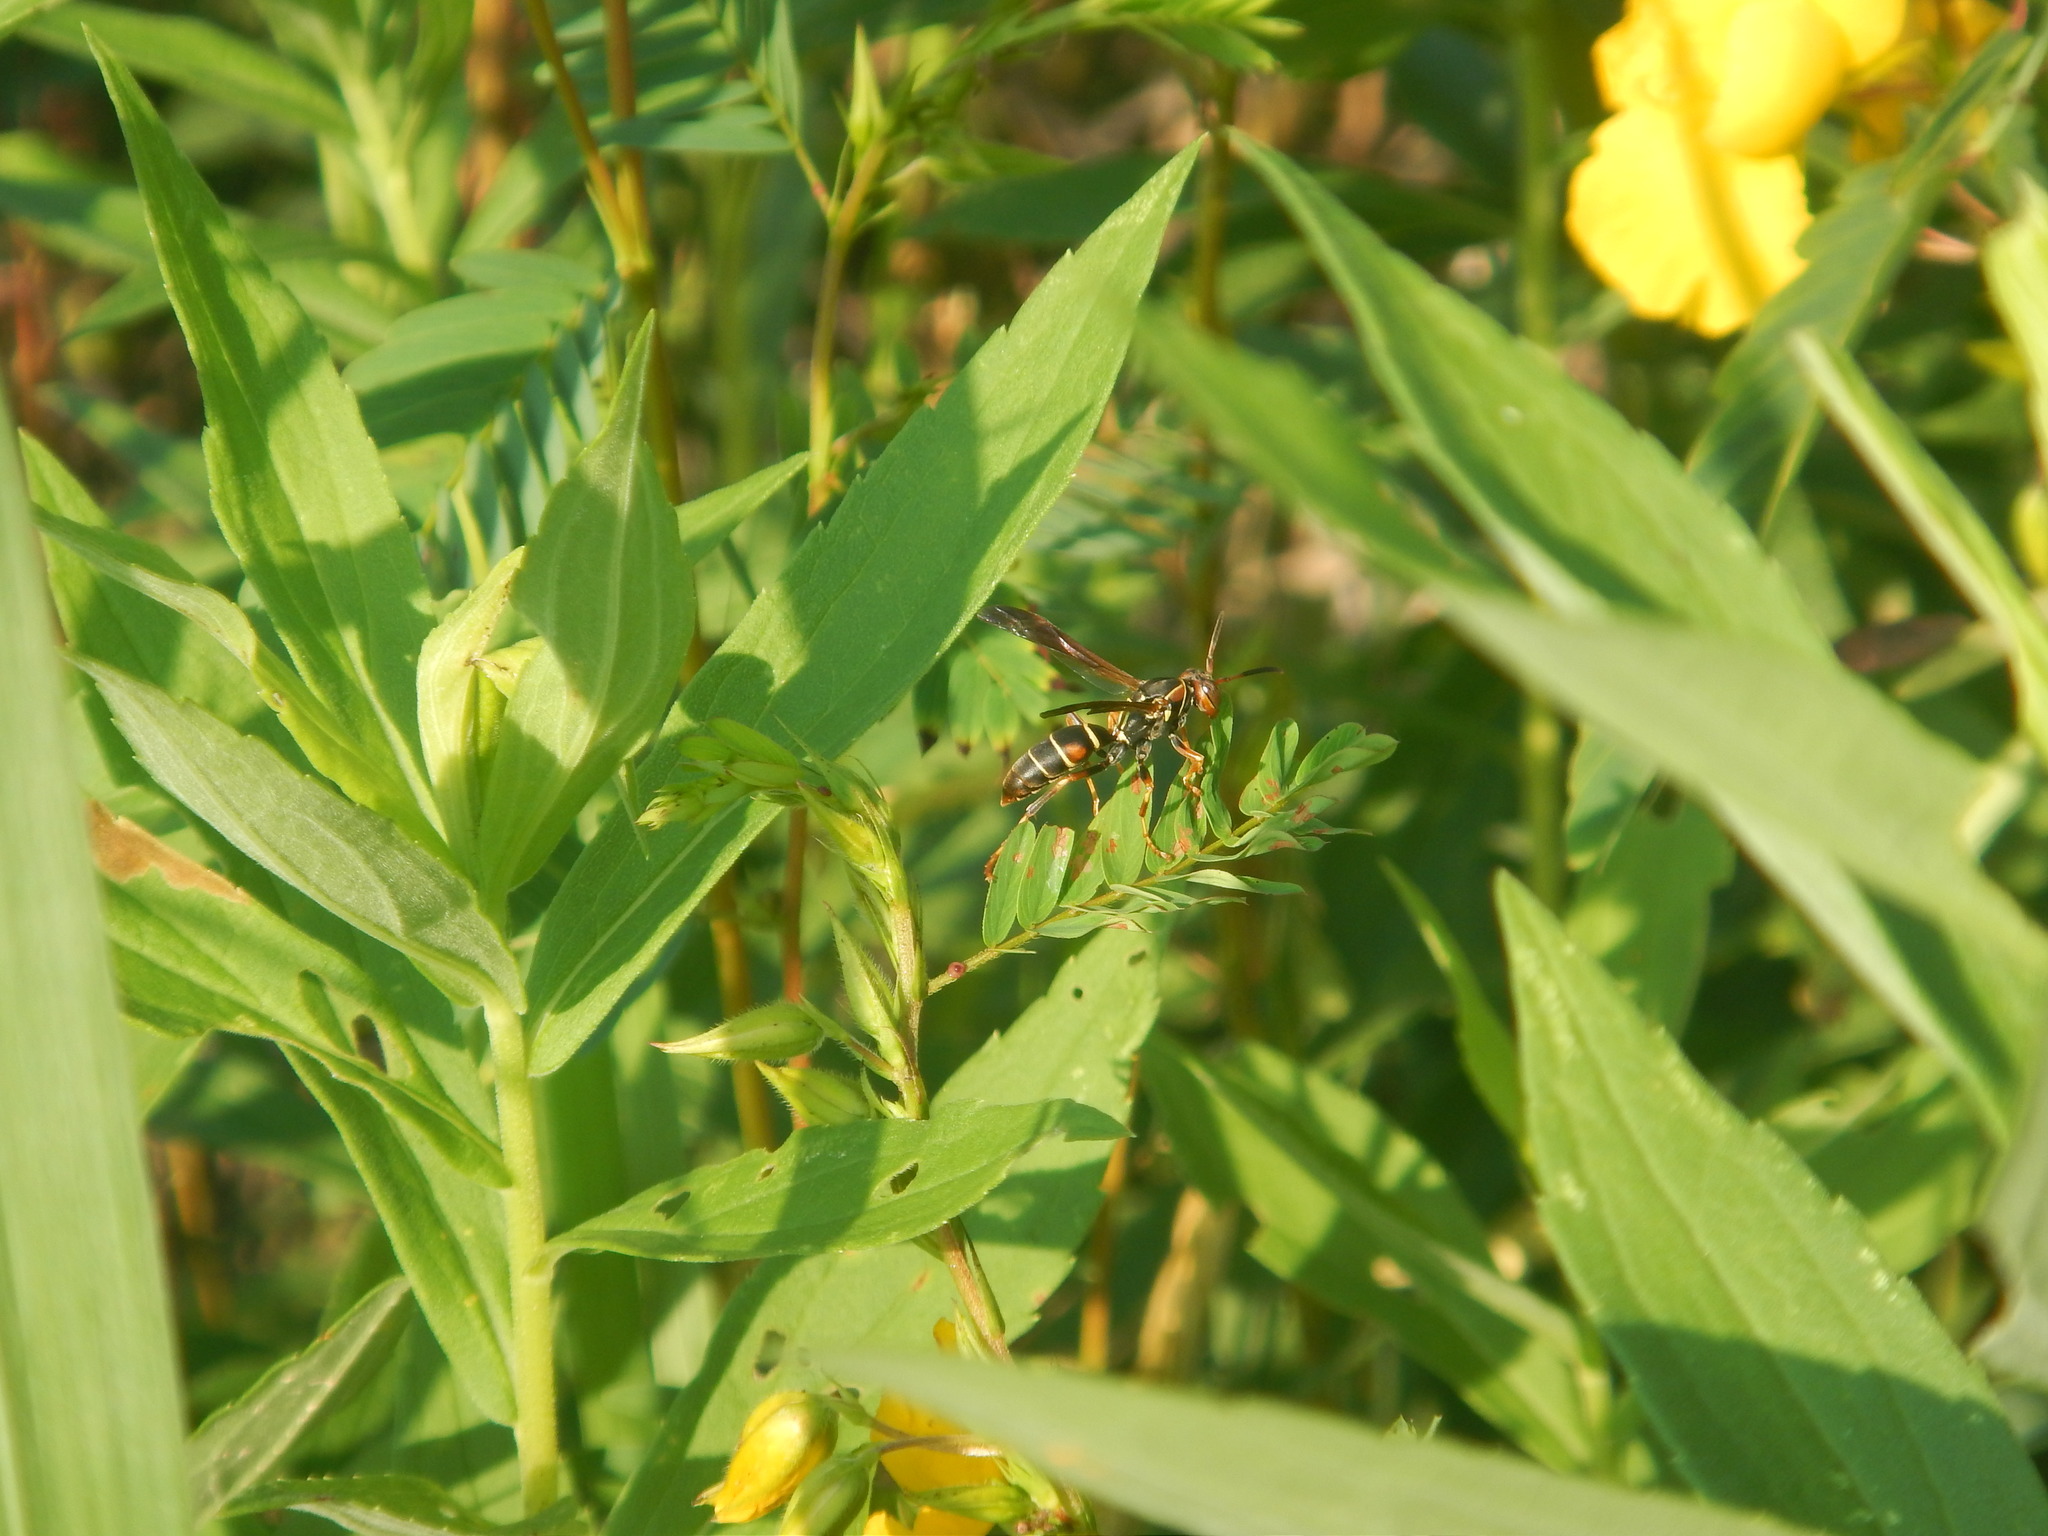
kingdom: Animalia
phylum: Arthropoda
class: Insecta
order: Hymenoptera
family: Eumenidae
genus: Polistes
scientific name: Polistes fuscatus
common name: Dark paper wasp
